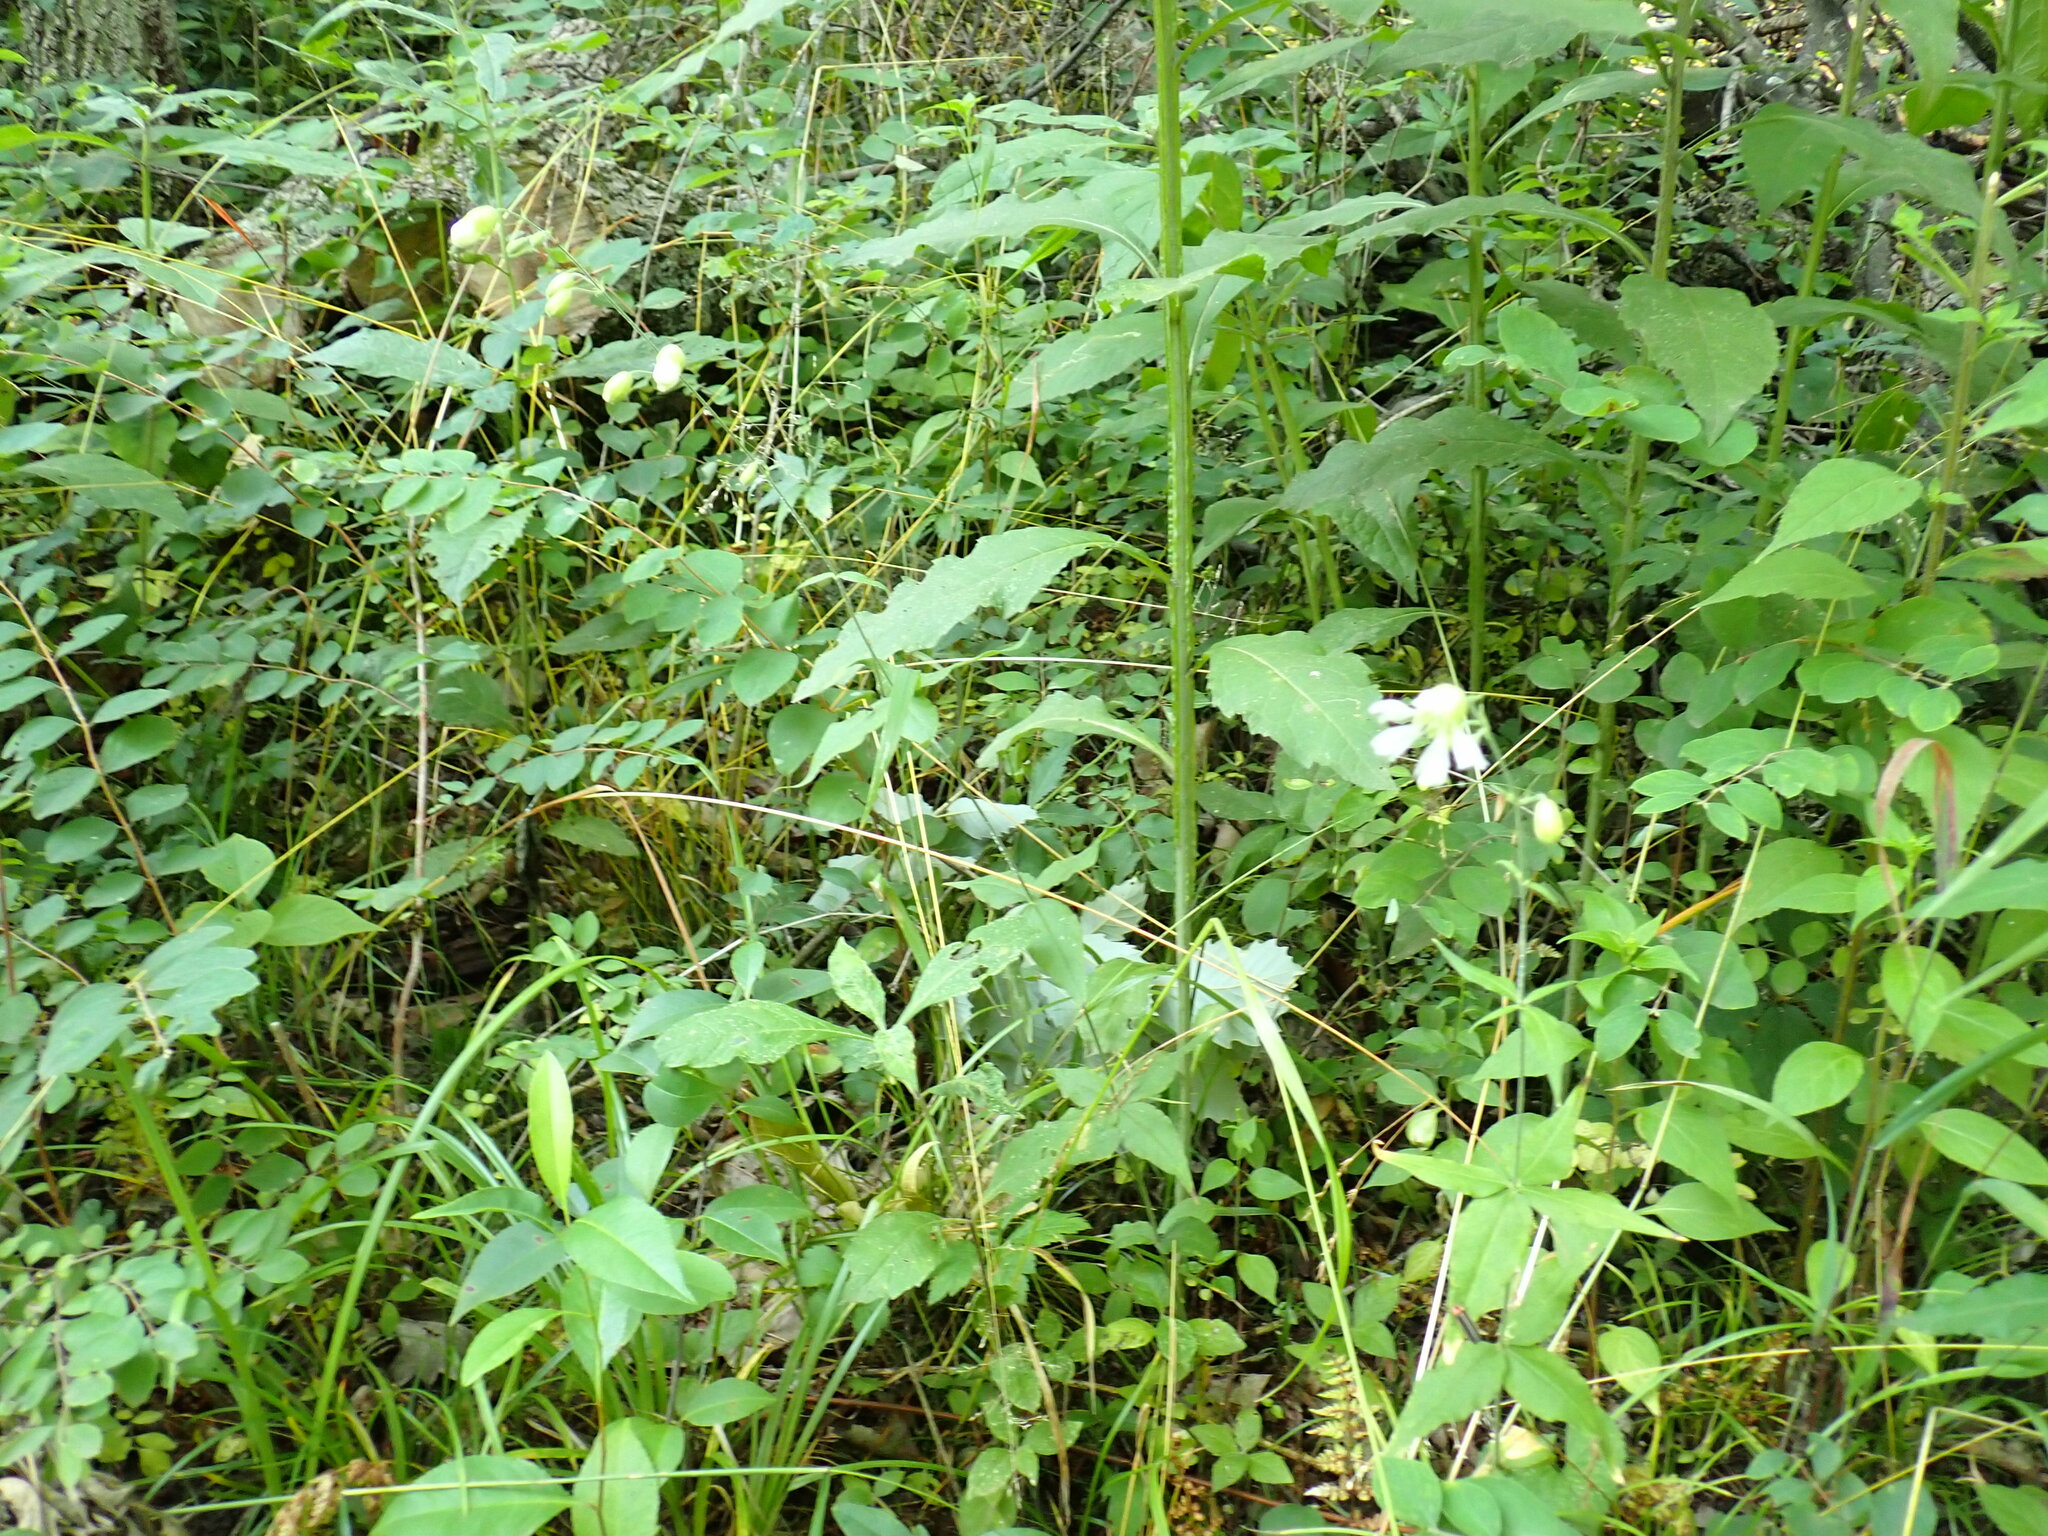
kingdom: Plantae
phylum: Tracheophyta
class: Magnoliopsida
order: Caryophyllales
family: Caryophyllaceae
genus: Silene
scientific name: Silene stellata
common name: Starry campion
